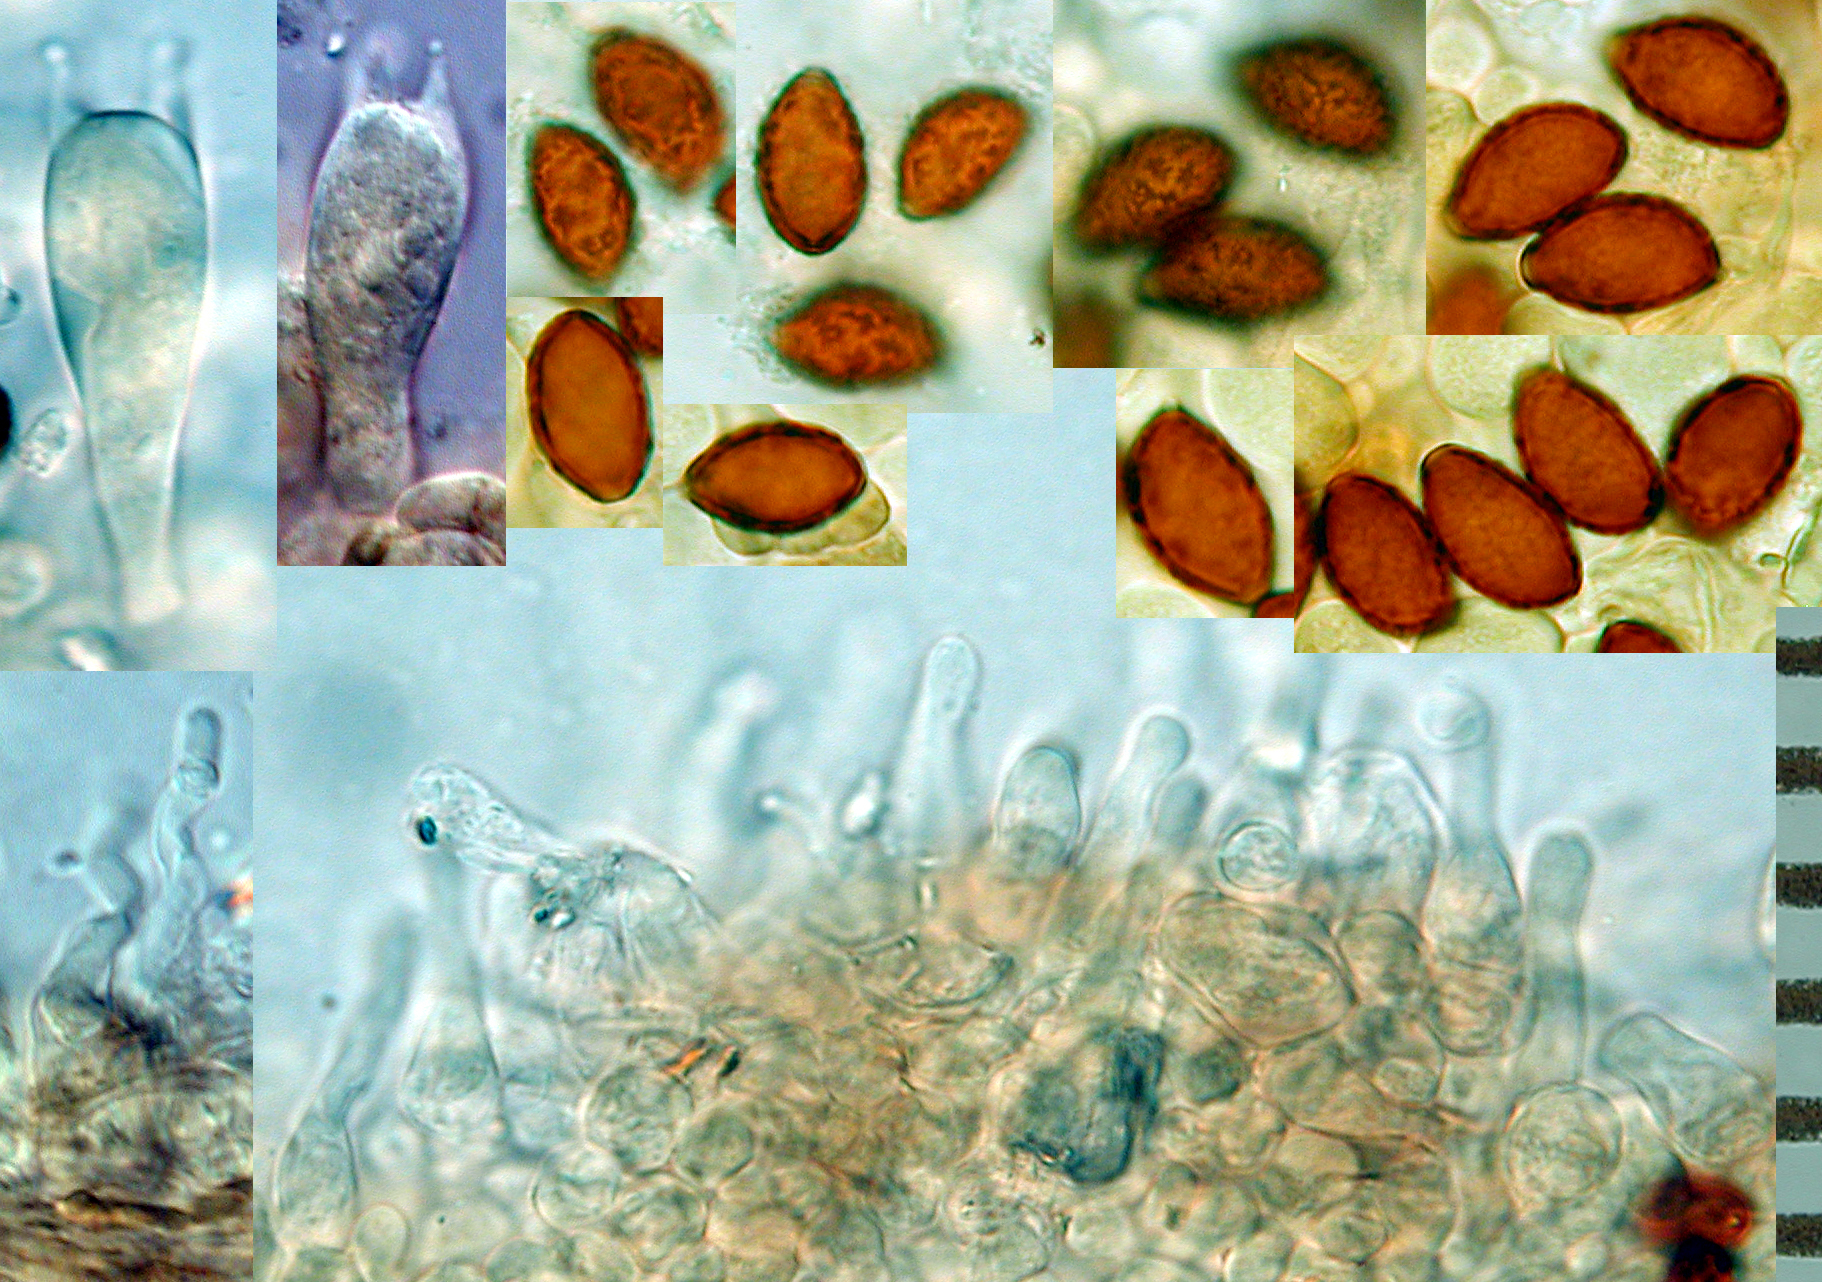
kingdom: Fungi
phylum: Basidiomycota
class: Agaricomycetes
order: Agaricales
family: Bolbitiaceae
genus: Panaeolina
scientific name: Panaeolina foenisecii
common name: Brown hay cap
